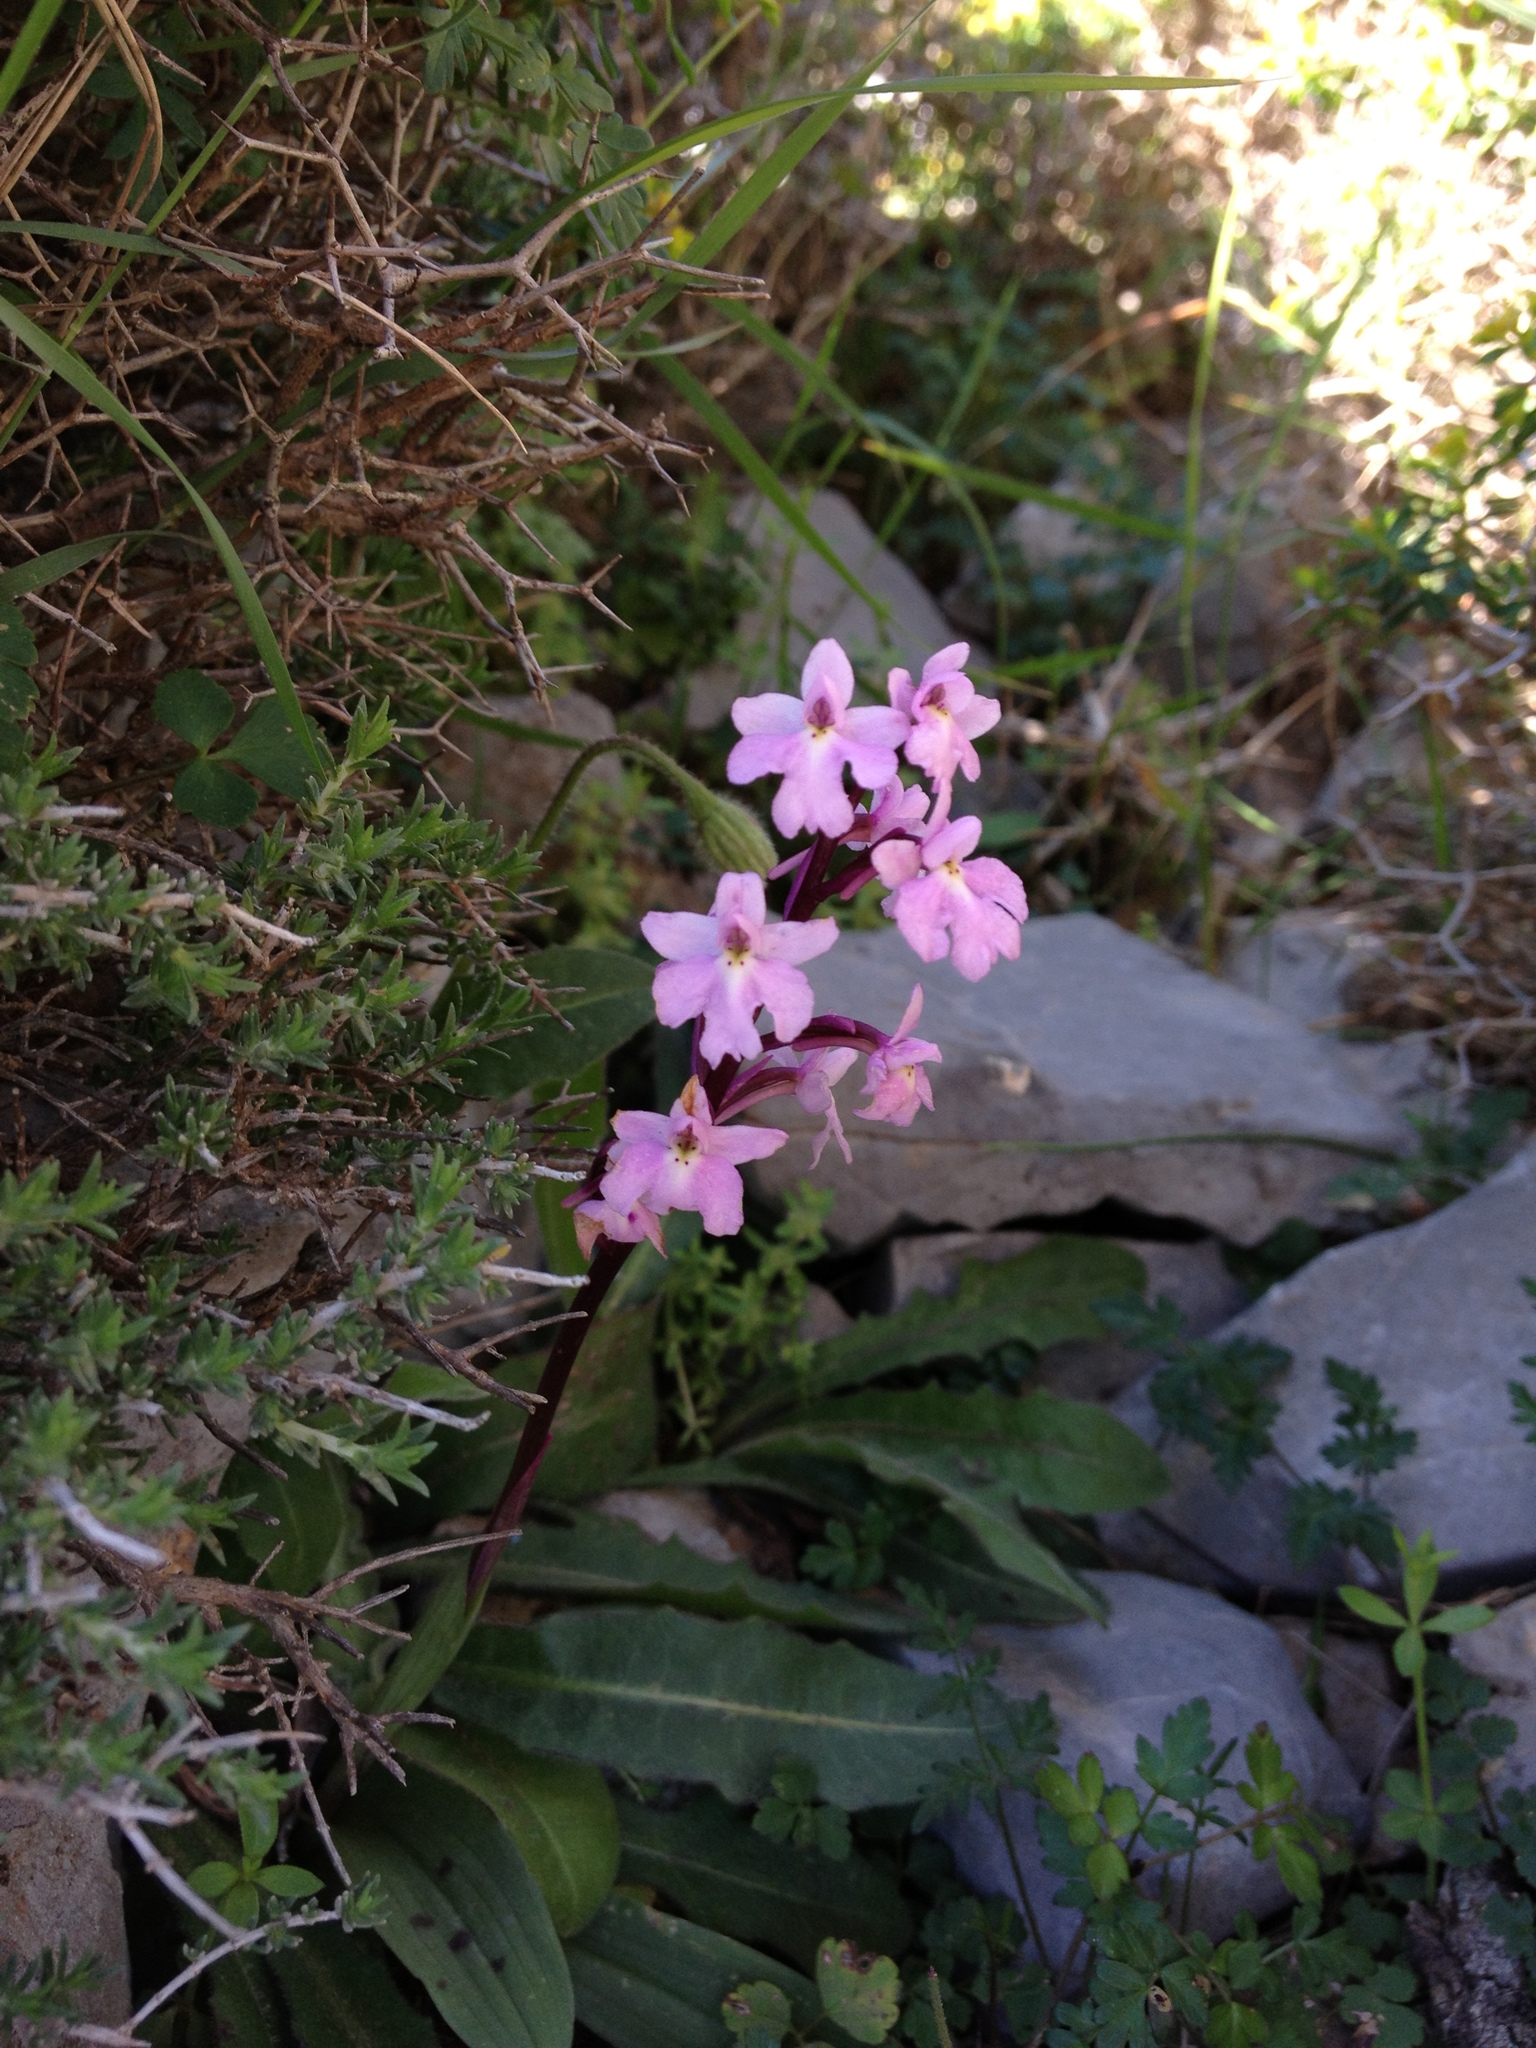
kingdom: Plantae
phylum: Tracheophyta
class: Liliopsida
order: Asparagales
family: Orchidaceae
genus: Orchis
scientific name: Orchis quadripunctata
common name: Four-spotted orchid
